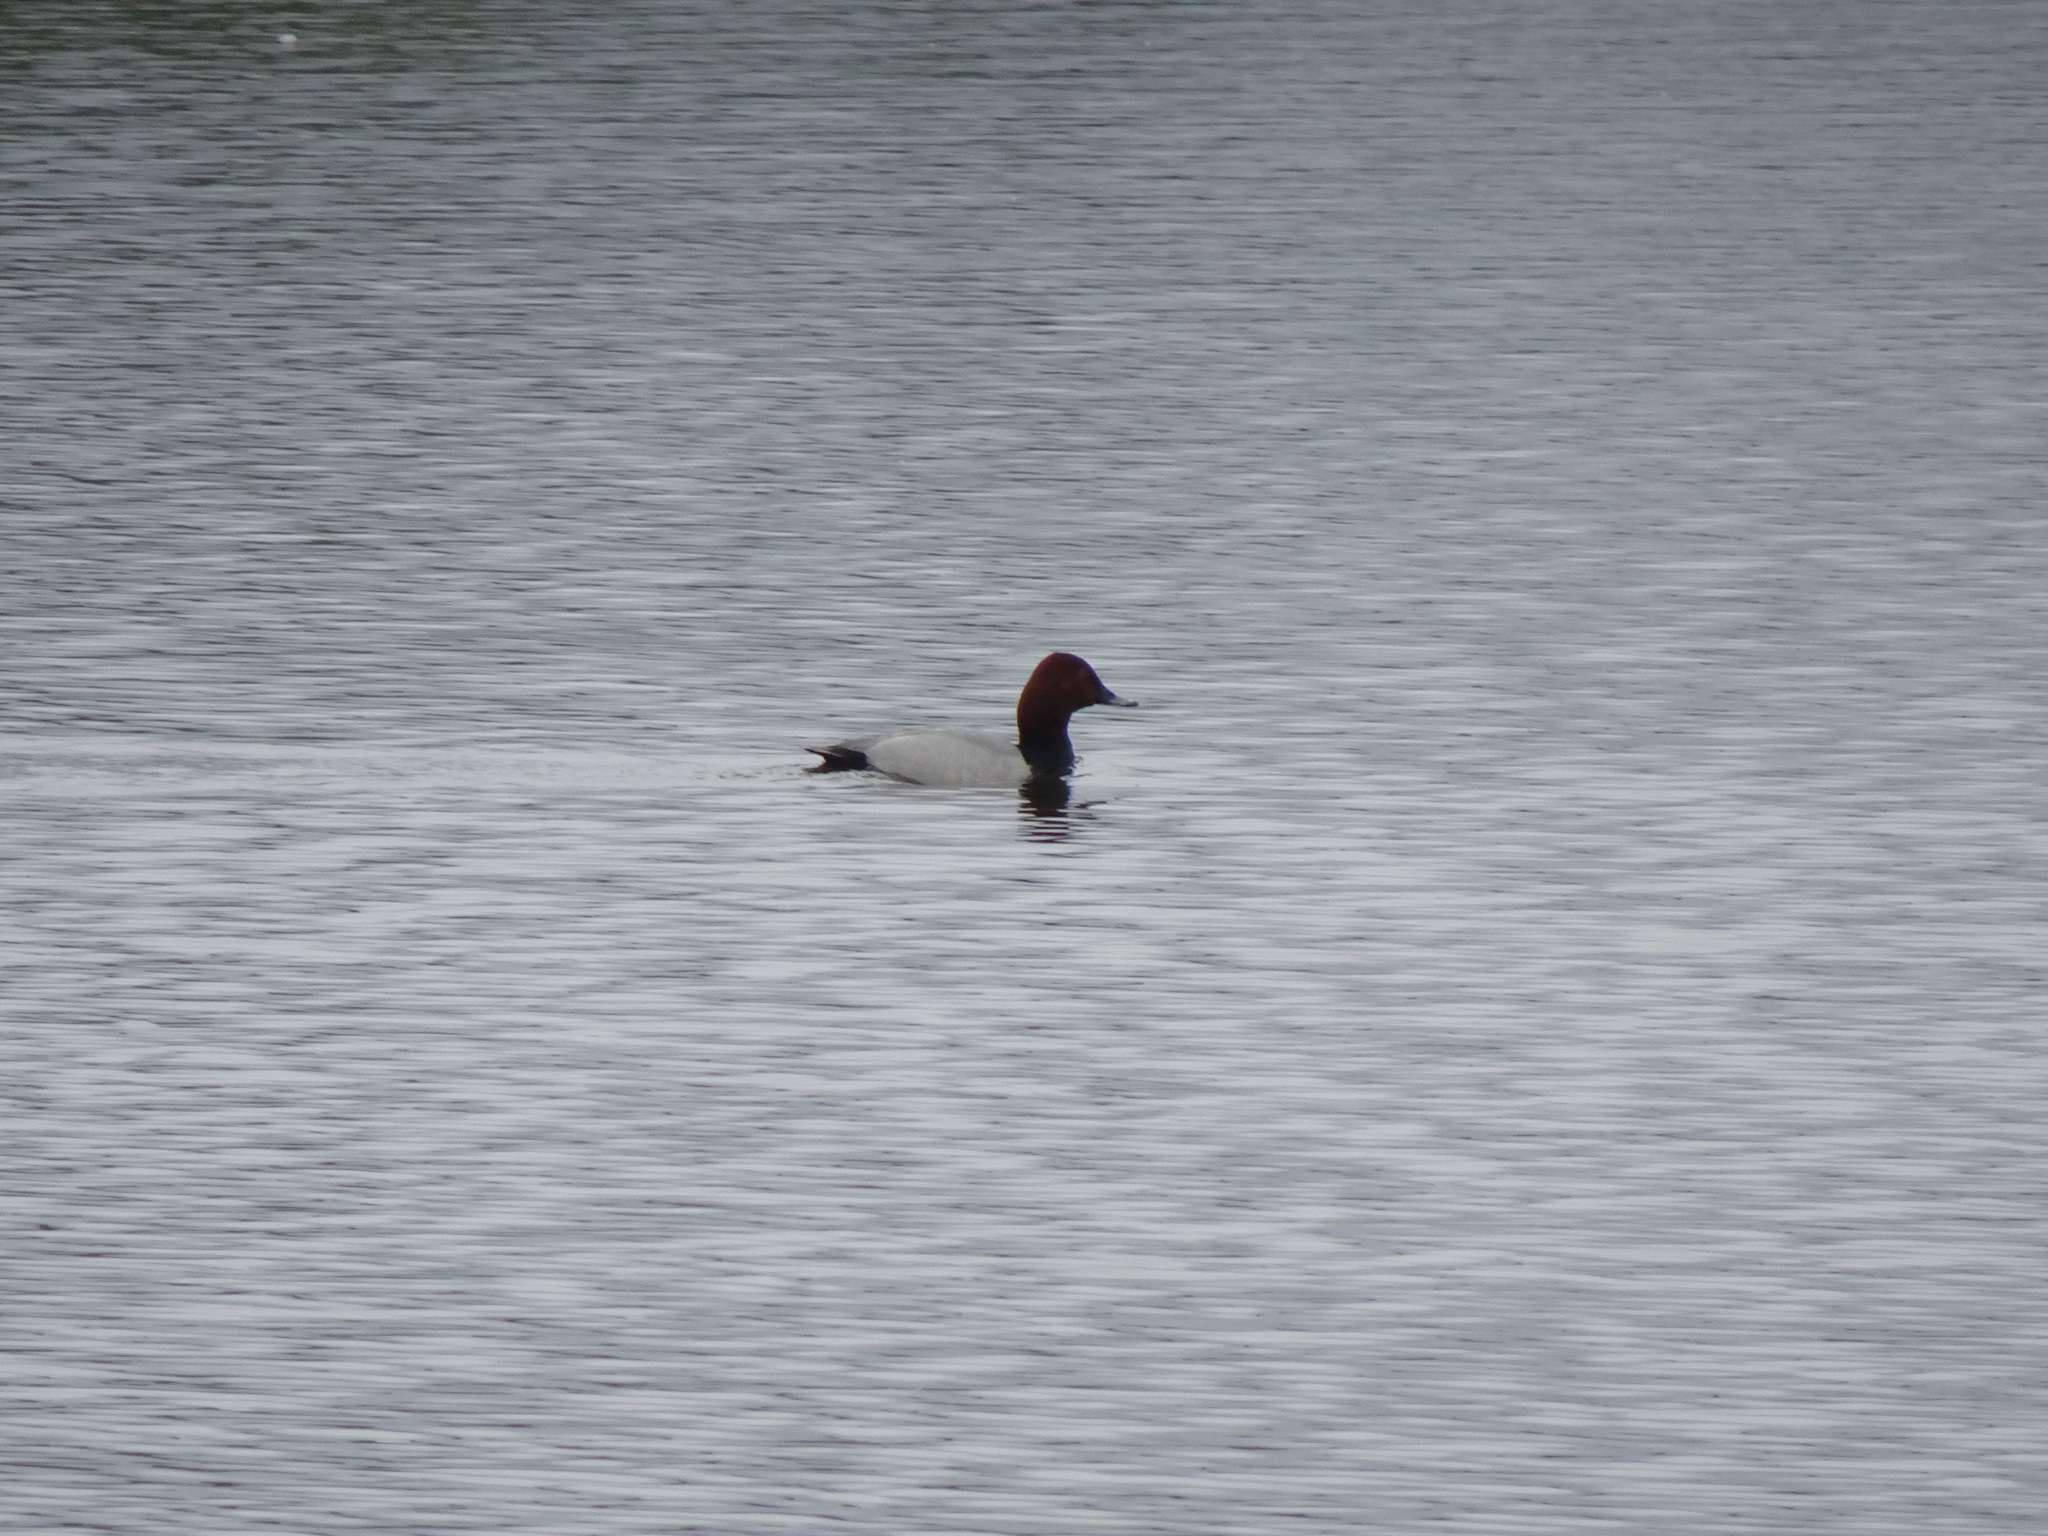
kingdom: Animalia
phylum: Chordata
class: Aves
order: Anseriformes
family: Anatidae
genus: Aythya
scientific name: Aythya ferina
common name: Common pochard
